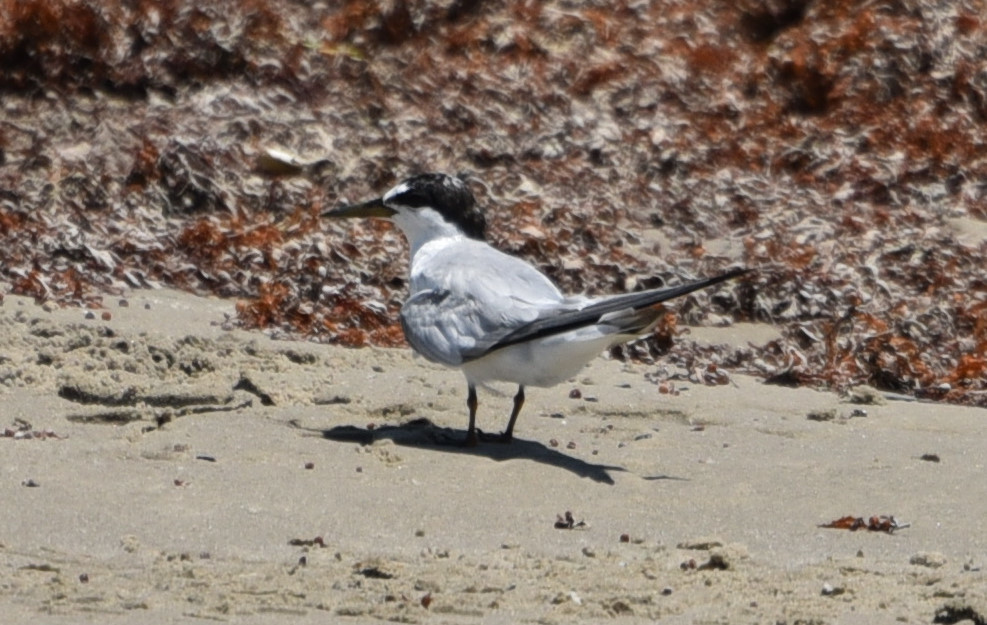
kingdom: Animalia
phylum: Chordata
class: Aves
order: Charadriiformes
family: Laridae
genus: Sternula
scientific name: Sternula antillarum
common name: Least tern
